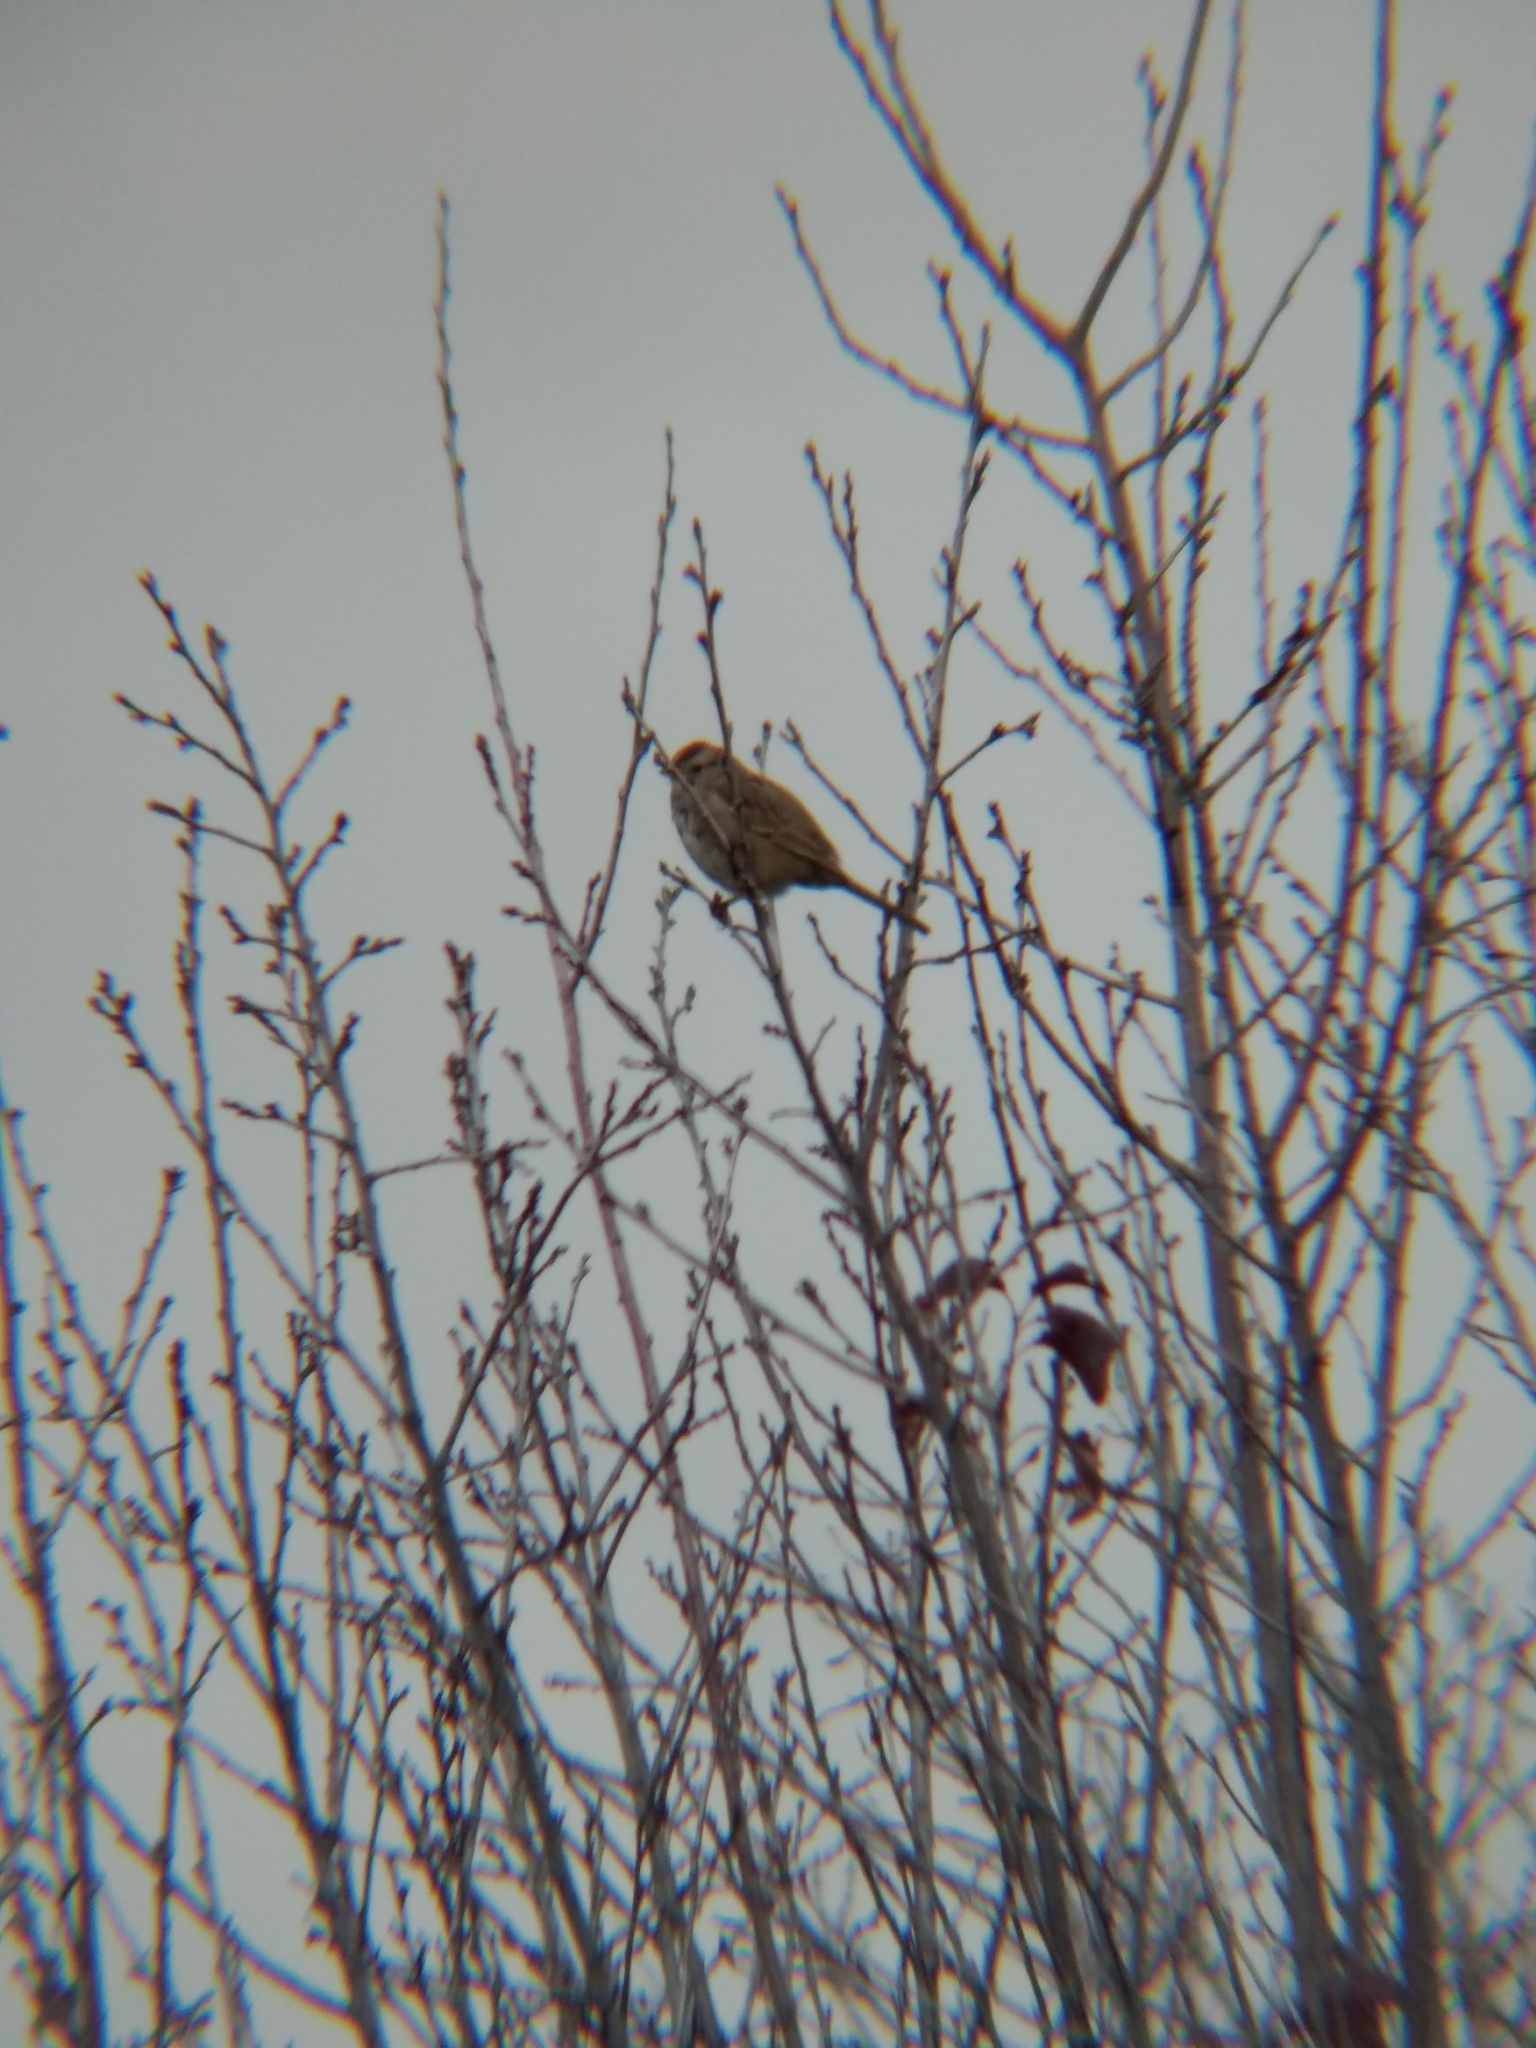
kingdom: Animalia
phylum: Chordata
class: Aves
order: Passeriformes
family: Passerellidae
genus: Zonotrichia
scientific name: Zonotrichia leucophrys
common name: White-crowned sparrow
